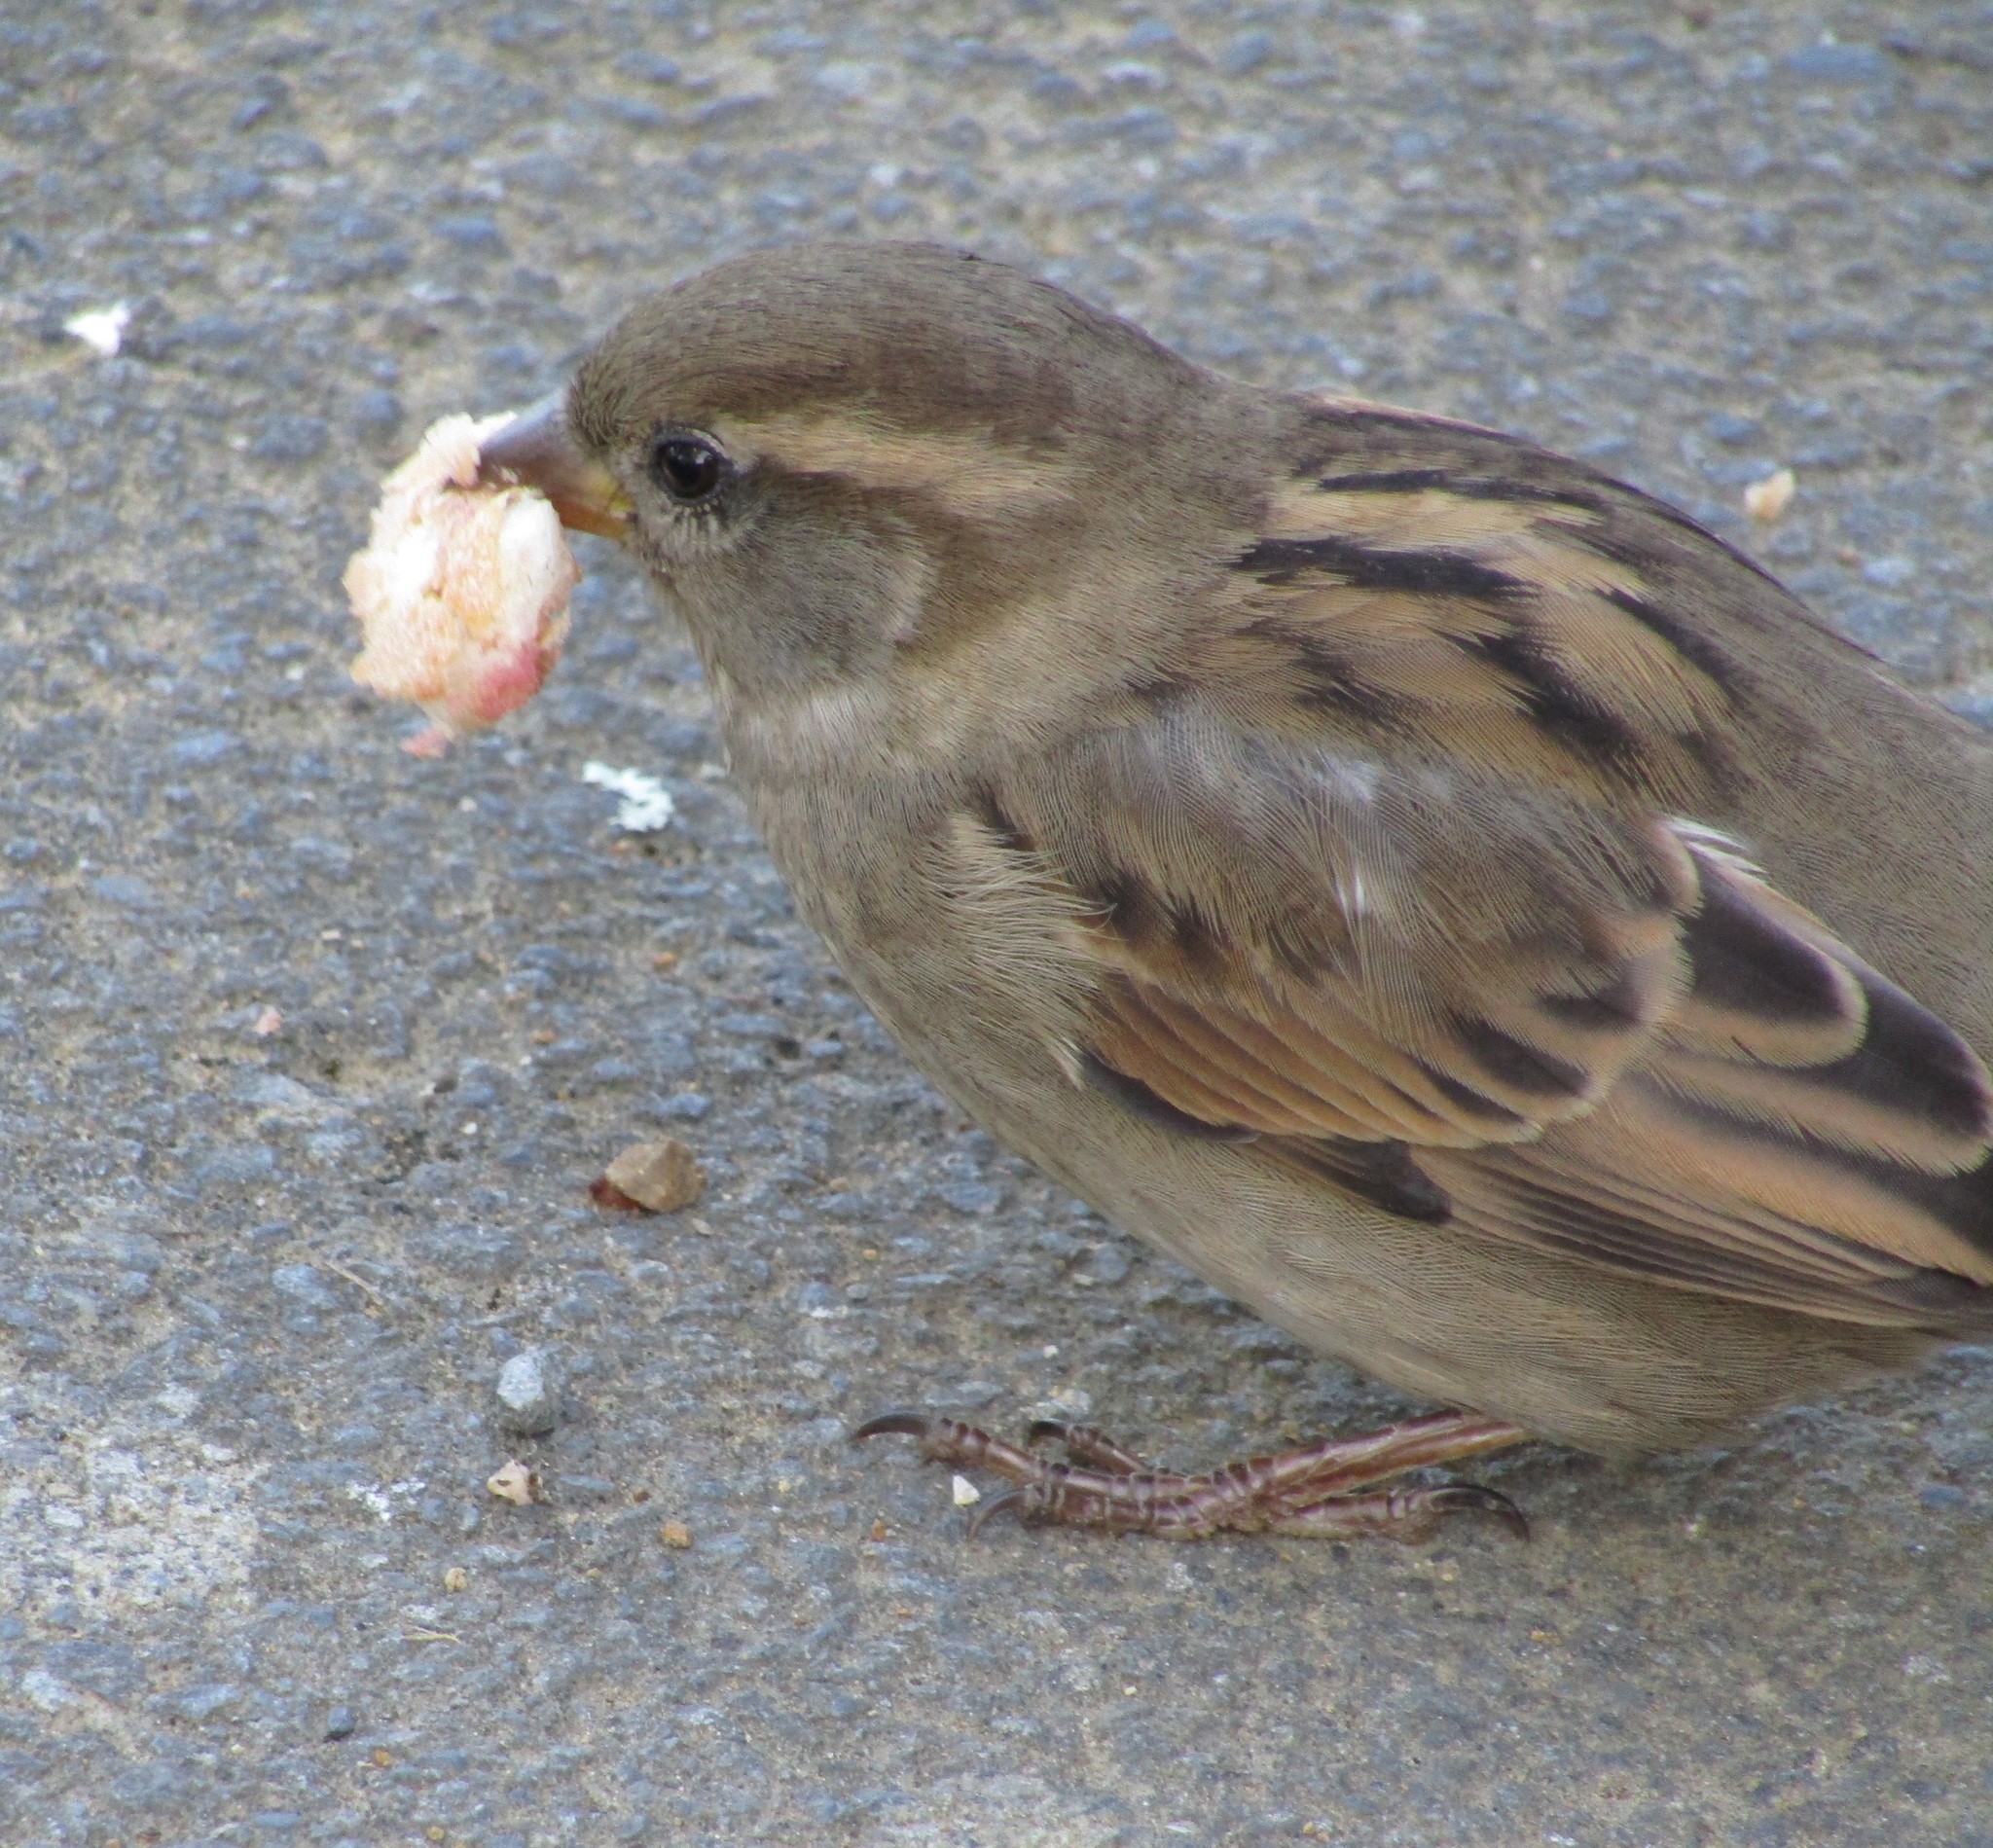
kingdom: Animalia
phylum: Chordata
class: Aves
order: Passeriformes
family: Passeridae
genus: Passer
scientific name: Passer domesticus
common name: House sparrow
